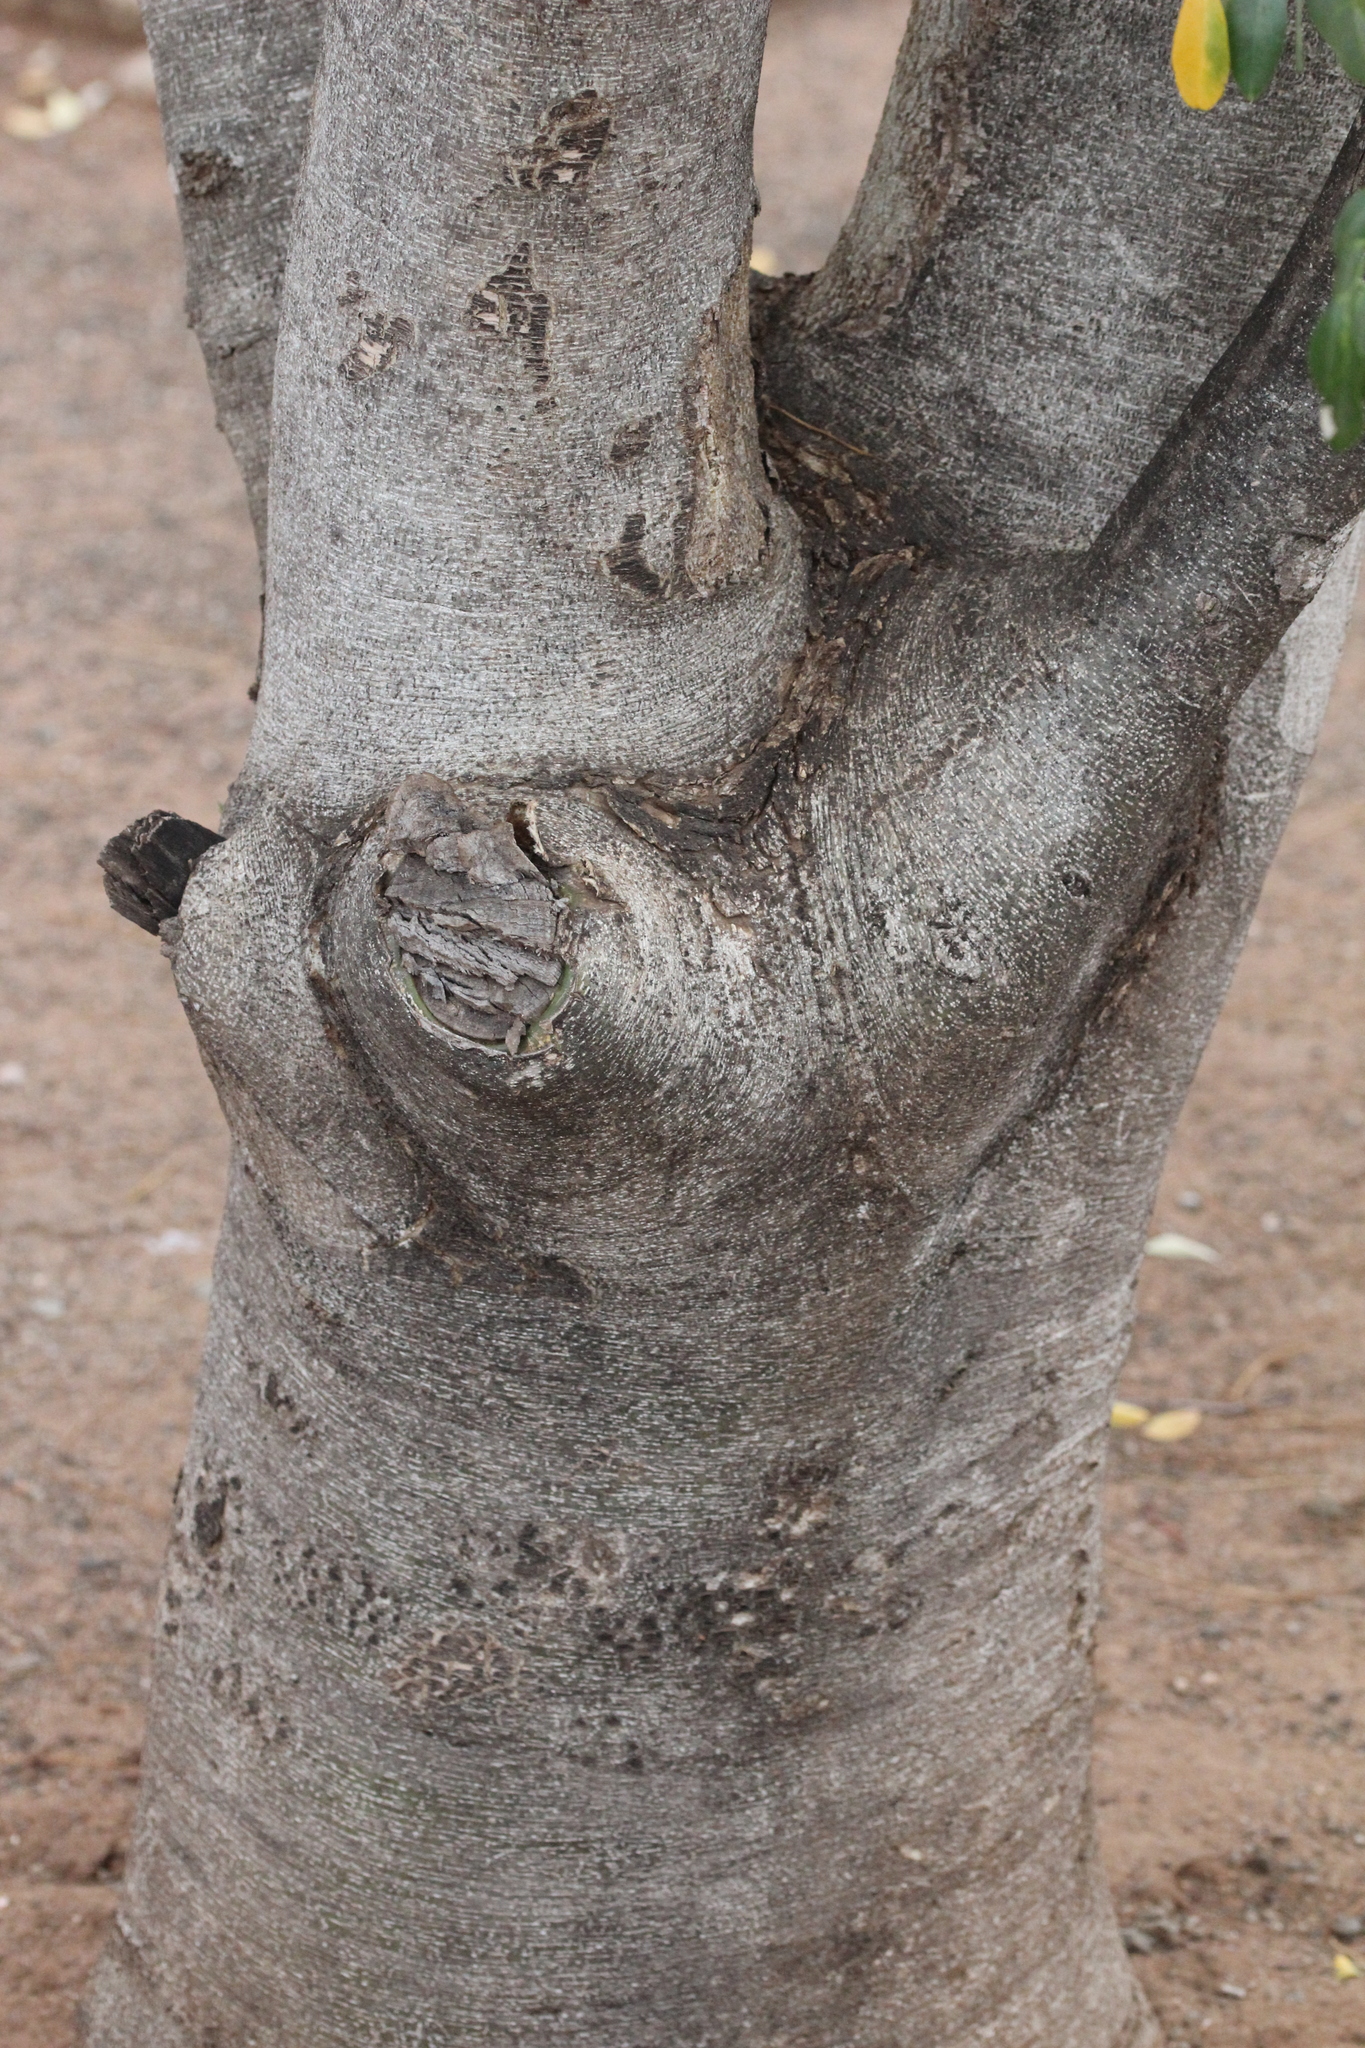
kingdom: Plantae
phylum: Tracheophyta
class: Magnoliopsida
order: Fabales
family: Fabaceae
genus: Xanthocercis
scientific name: Xanthocercis zambesiaca
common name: Nyala-tree
